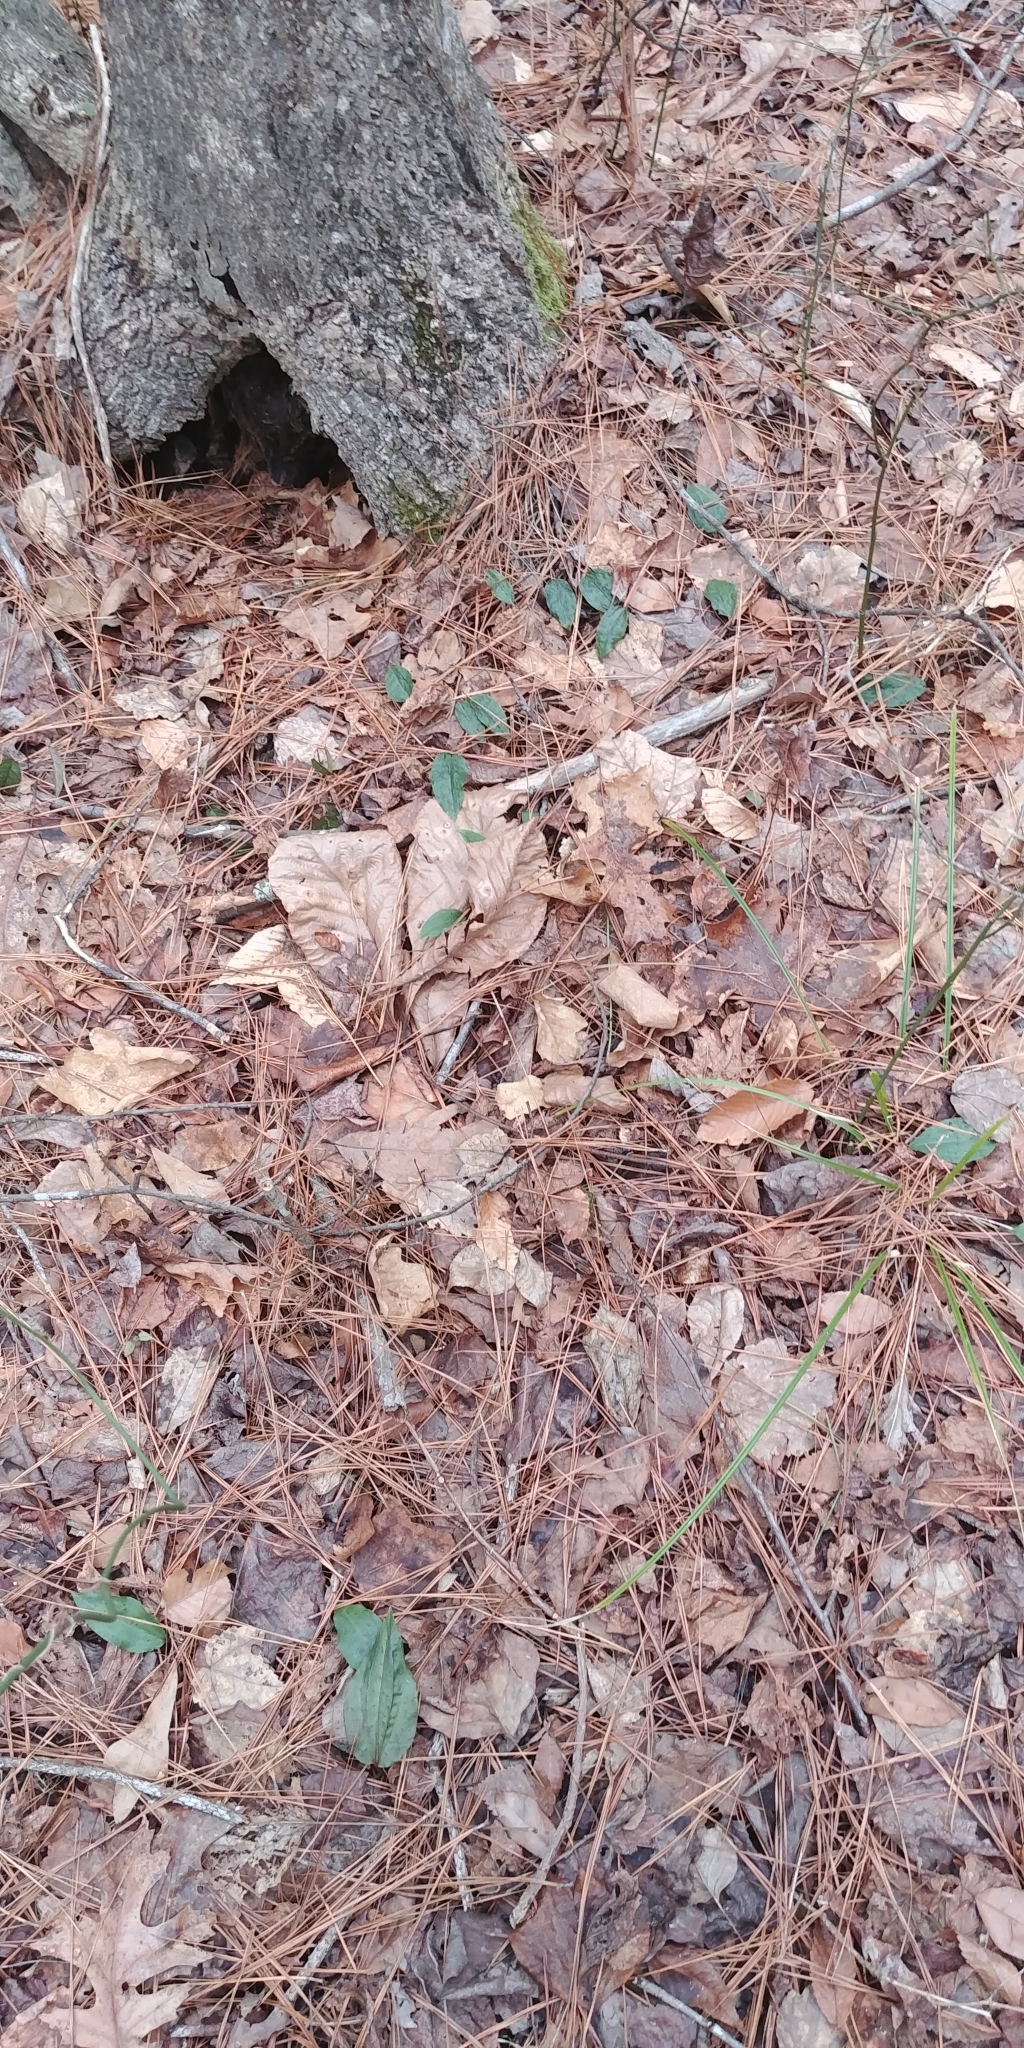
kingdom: Plantae
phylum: Tracheophyta
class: Liliopsida
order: Asparagales
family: Orchidaceae
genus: Tipularia
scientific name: Tipularia discolor
